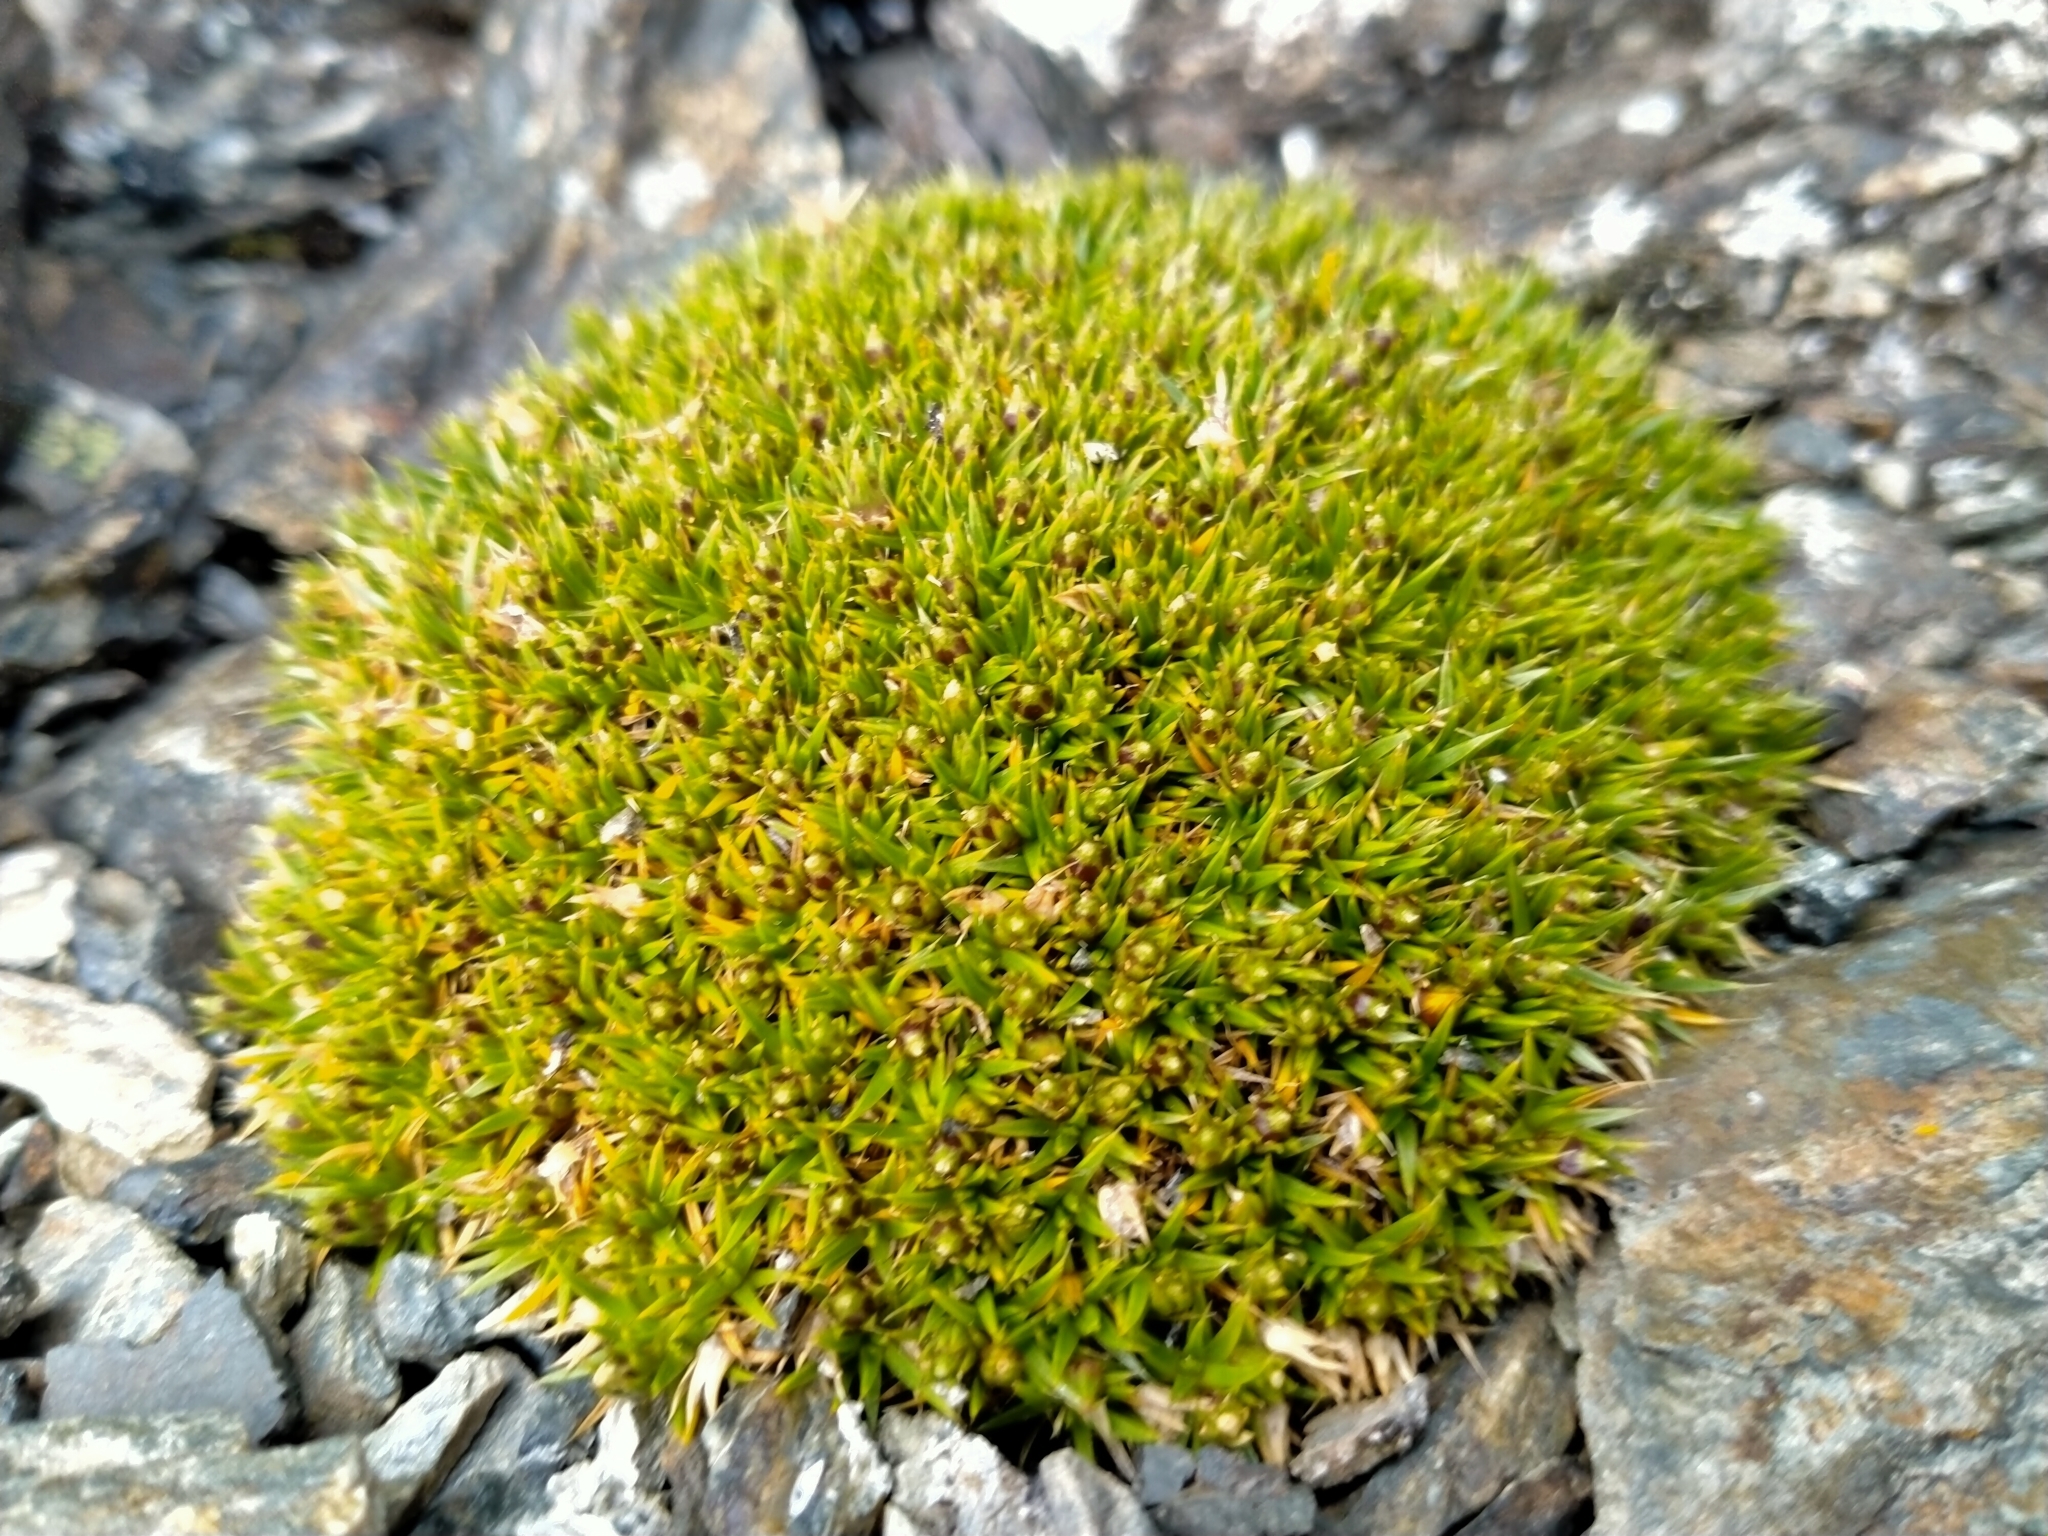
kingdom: Plantae
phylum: Tracheophyta
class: Magnoliopsida
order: Caryophyllales
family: Caryophyllaceae
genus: Colobanthus
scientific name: Colobanthus buchananii
